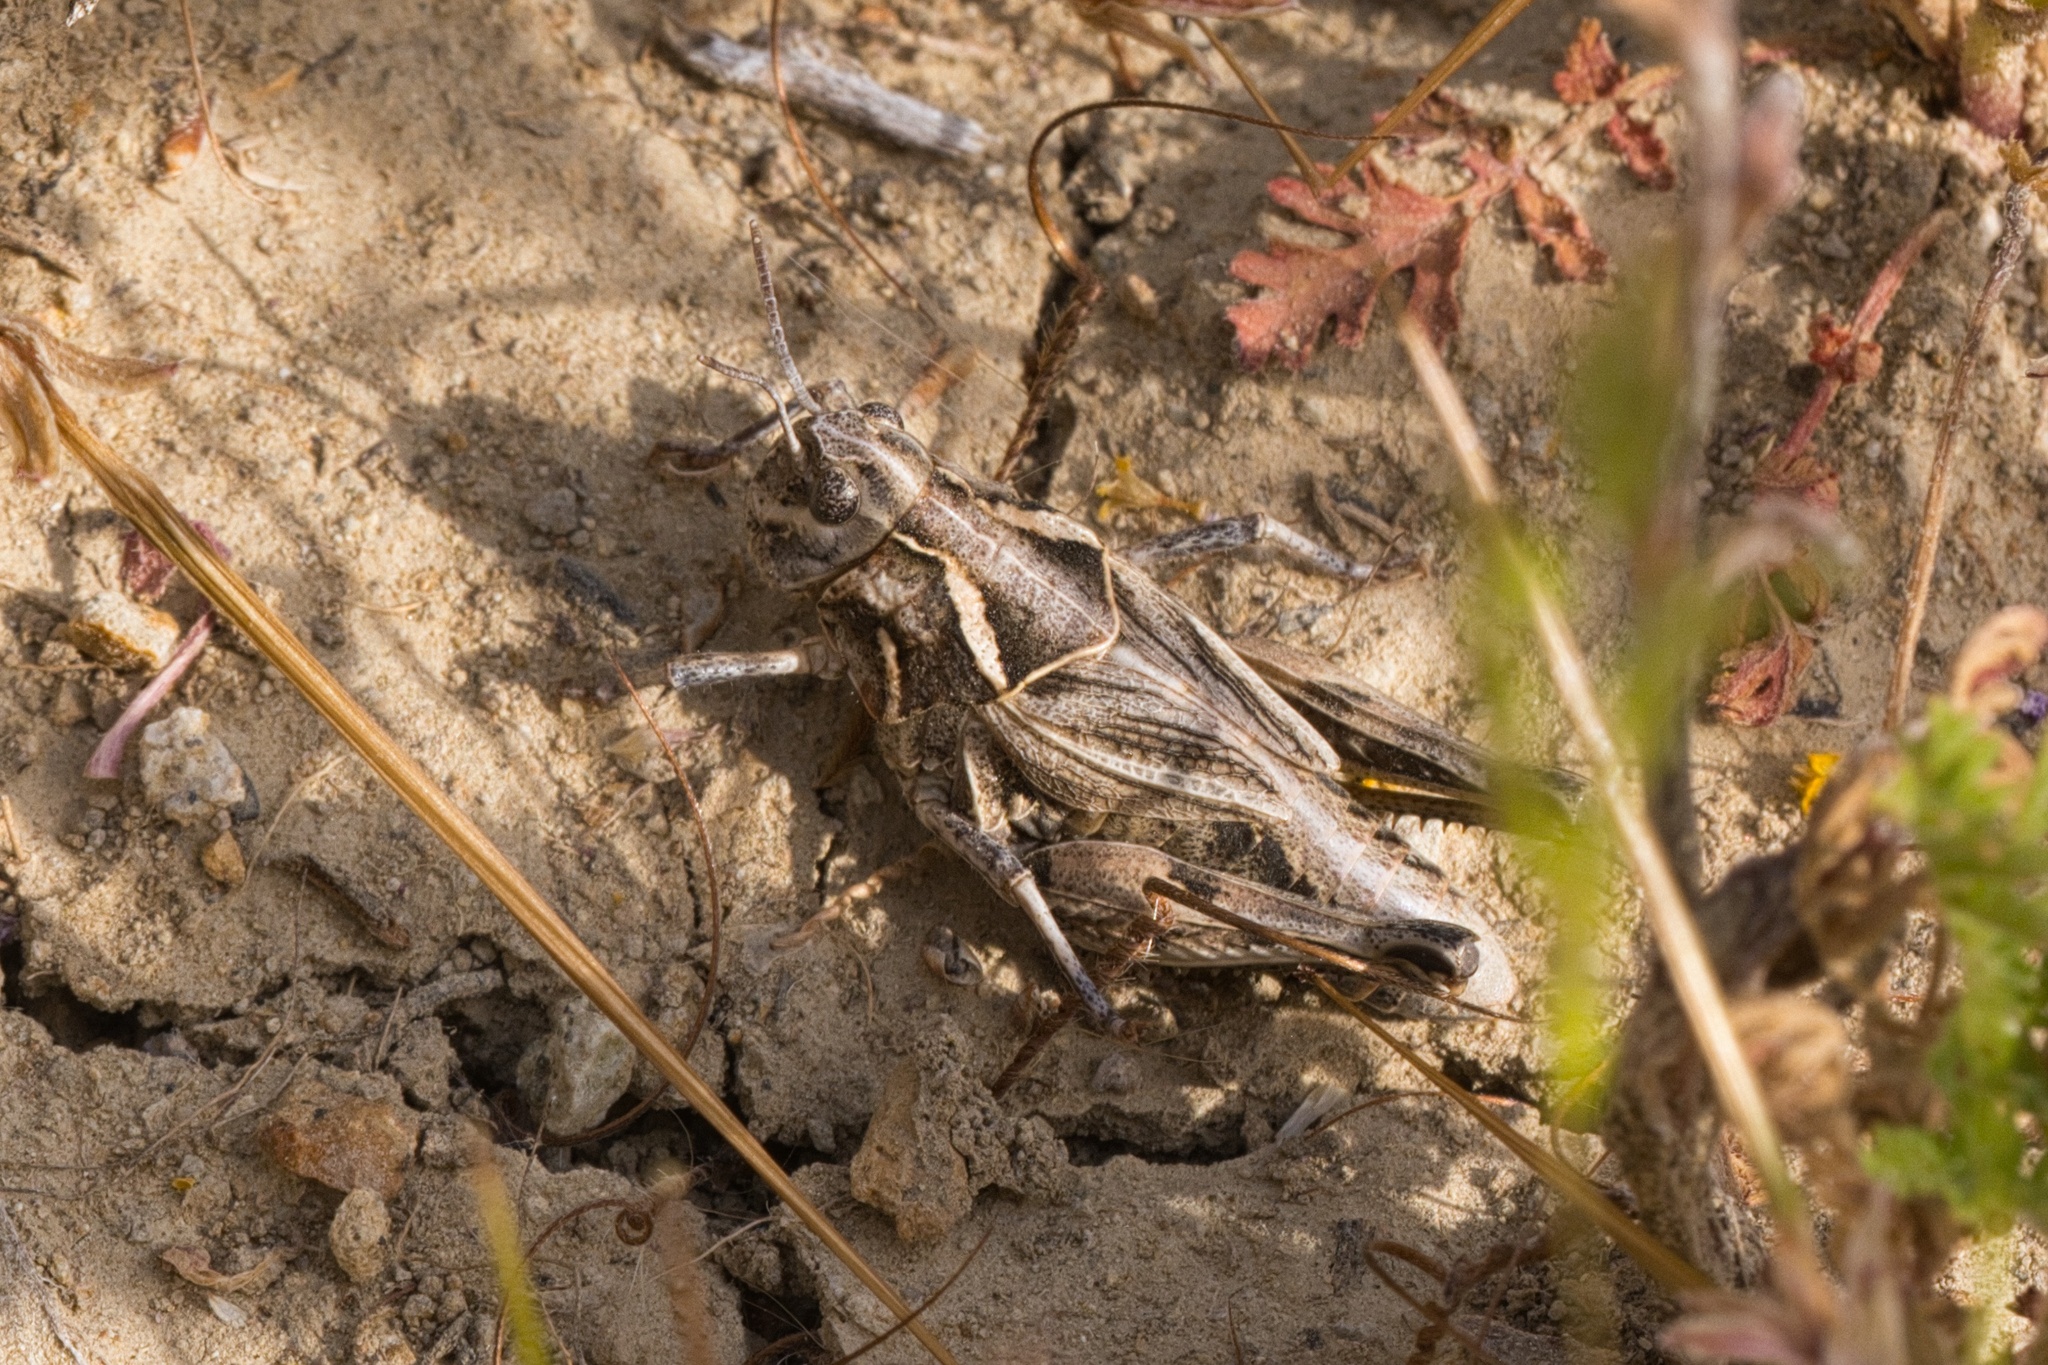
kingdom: Animalia
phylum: Arthropoda
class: Insecta
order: Orthoptera
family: Acrididae
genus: Esselenia
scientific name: Esselenia vanduzeei
